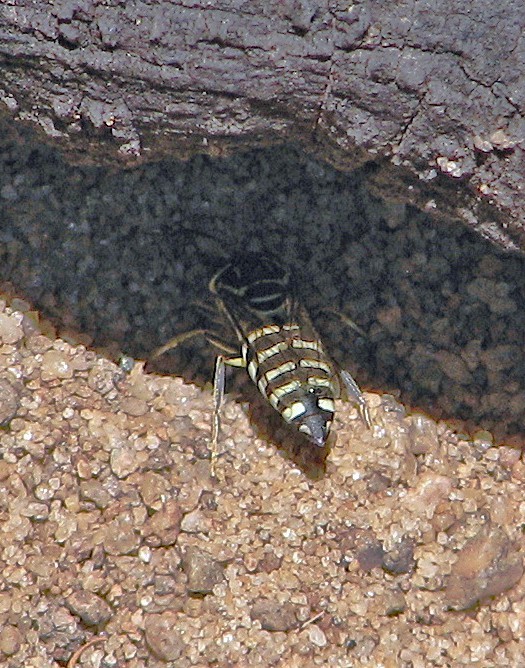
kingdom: Animalia
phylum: Arthropoda
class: Insecta
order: Hymenoptera
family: Crabronidae
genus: Bicyrtes
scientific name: Bicyrtes variegatus
